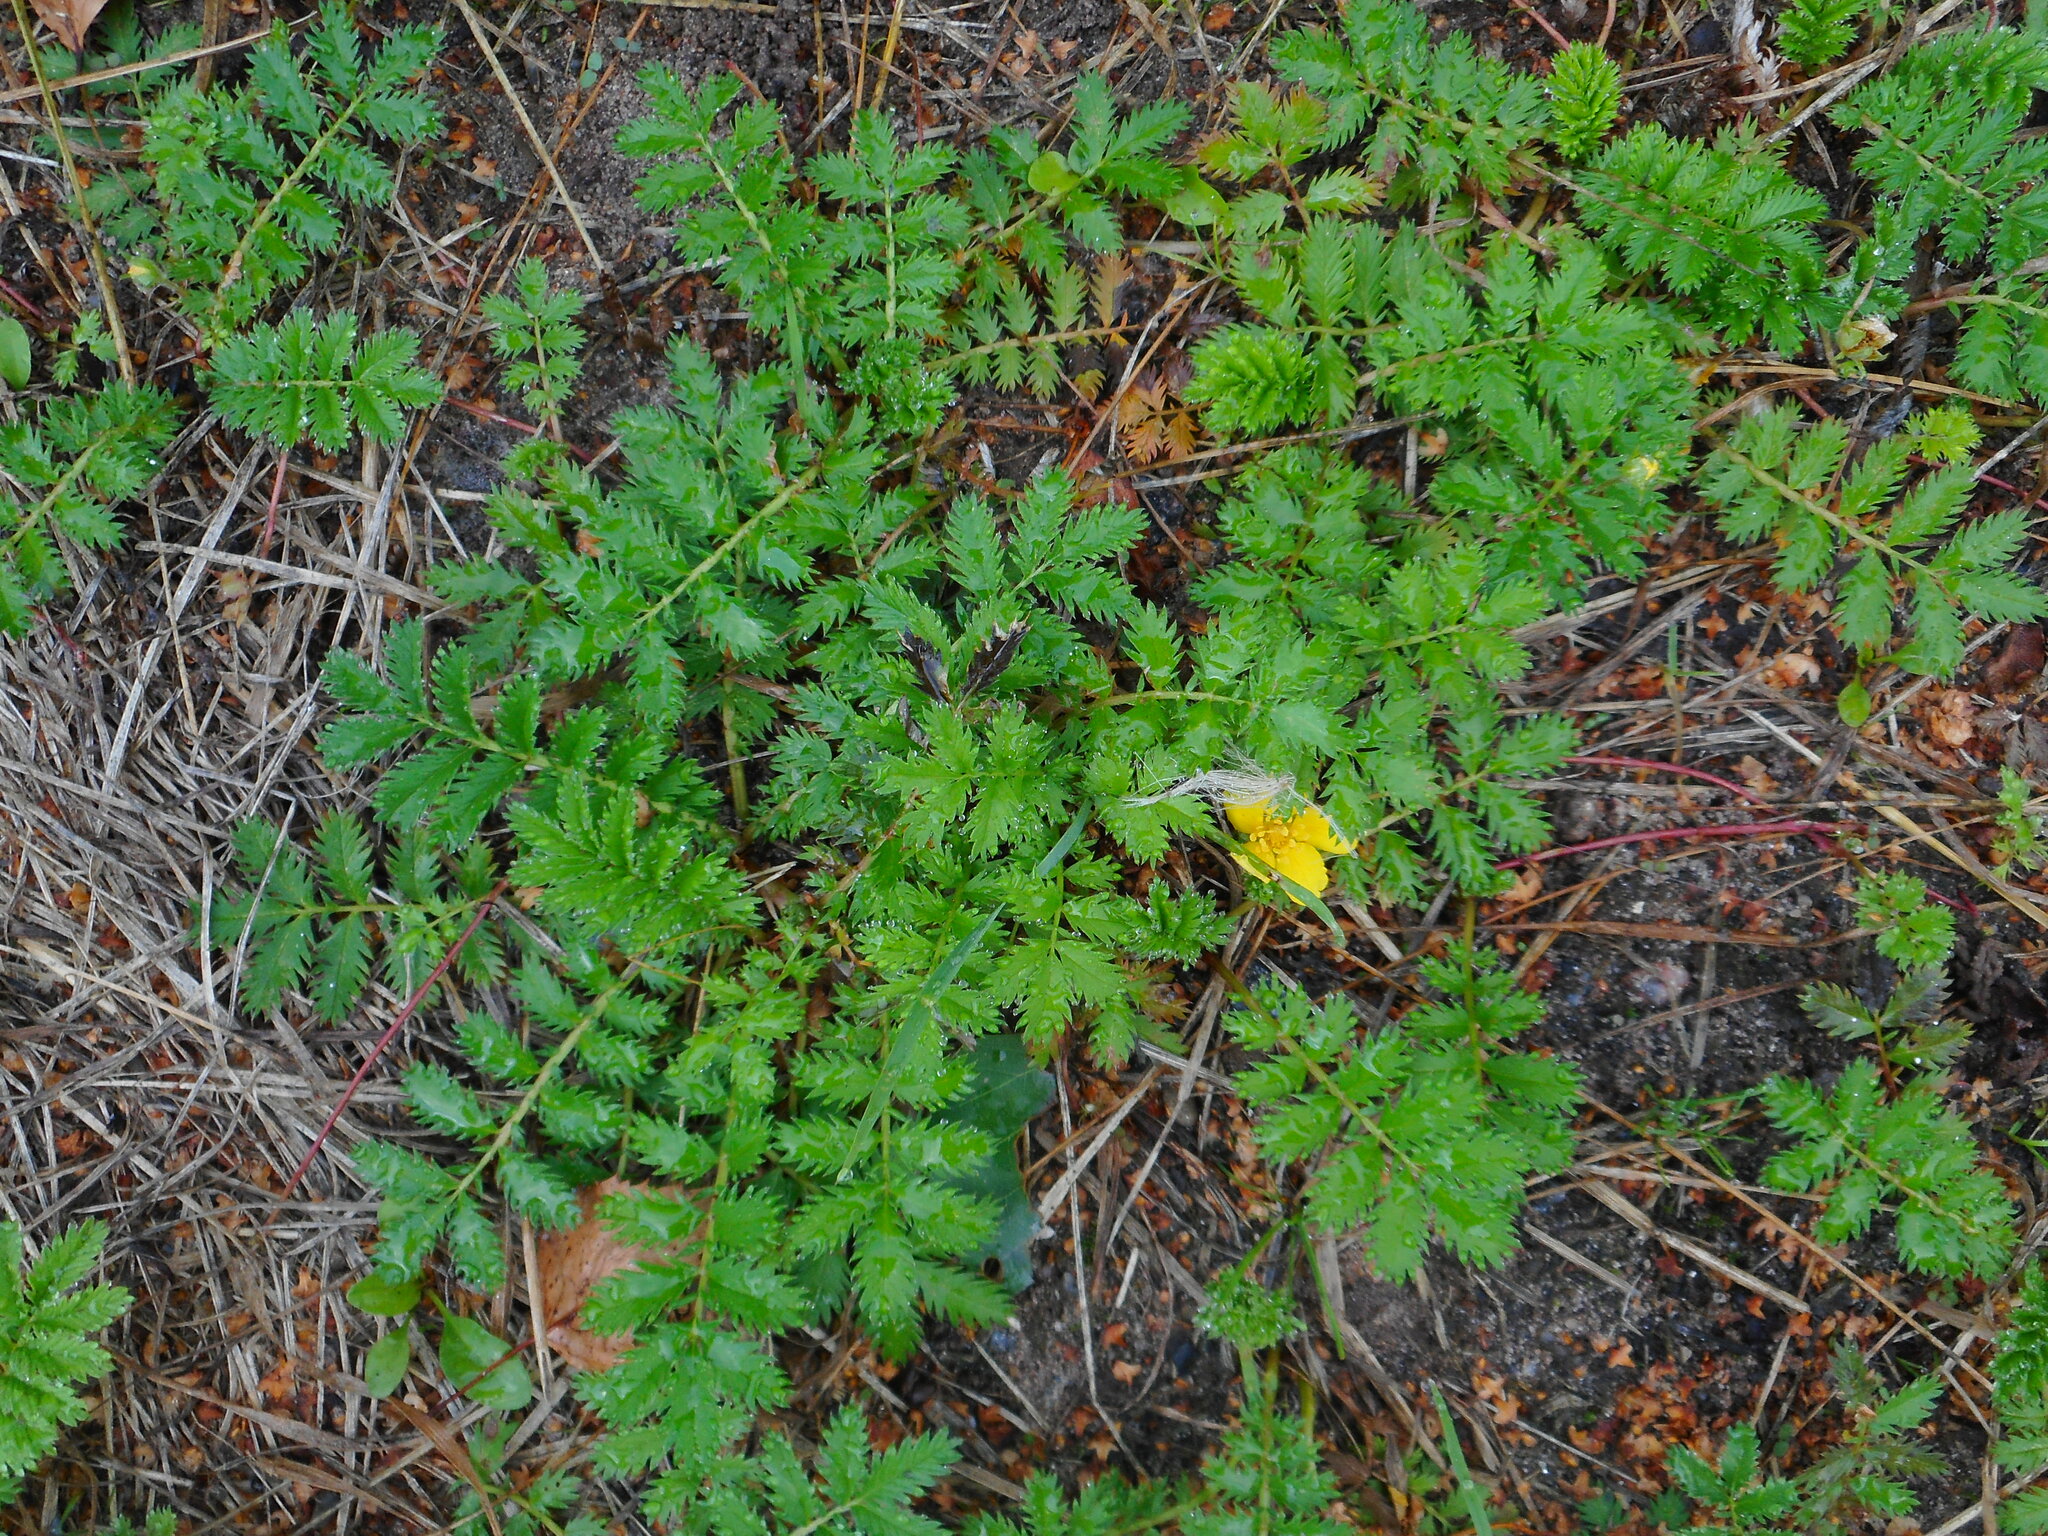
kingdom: Plantae
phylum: Tracheophyta
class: Magnoliopsida
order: Rosales
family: Rosaceae
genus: Argentina
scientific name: Argentina anserina
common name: Common silverweed
